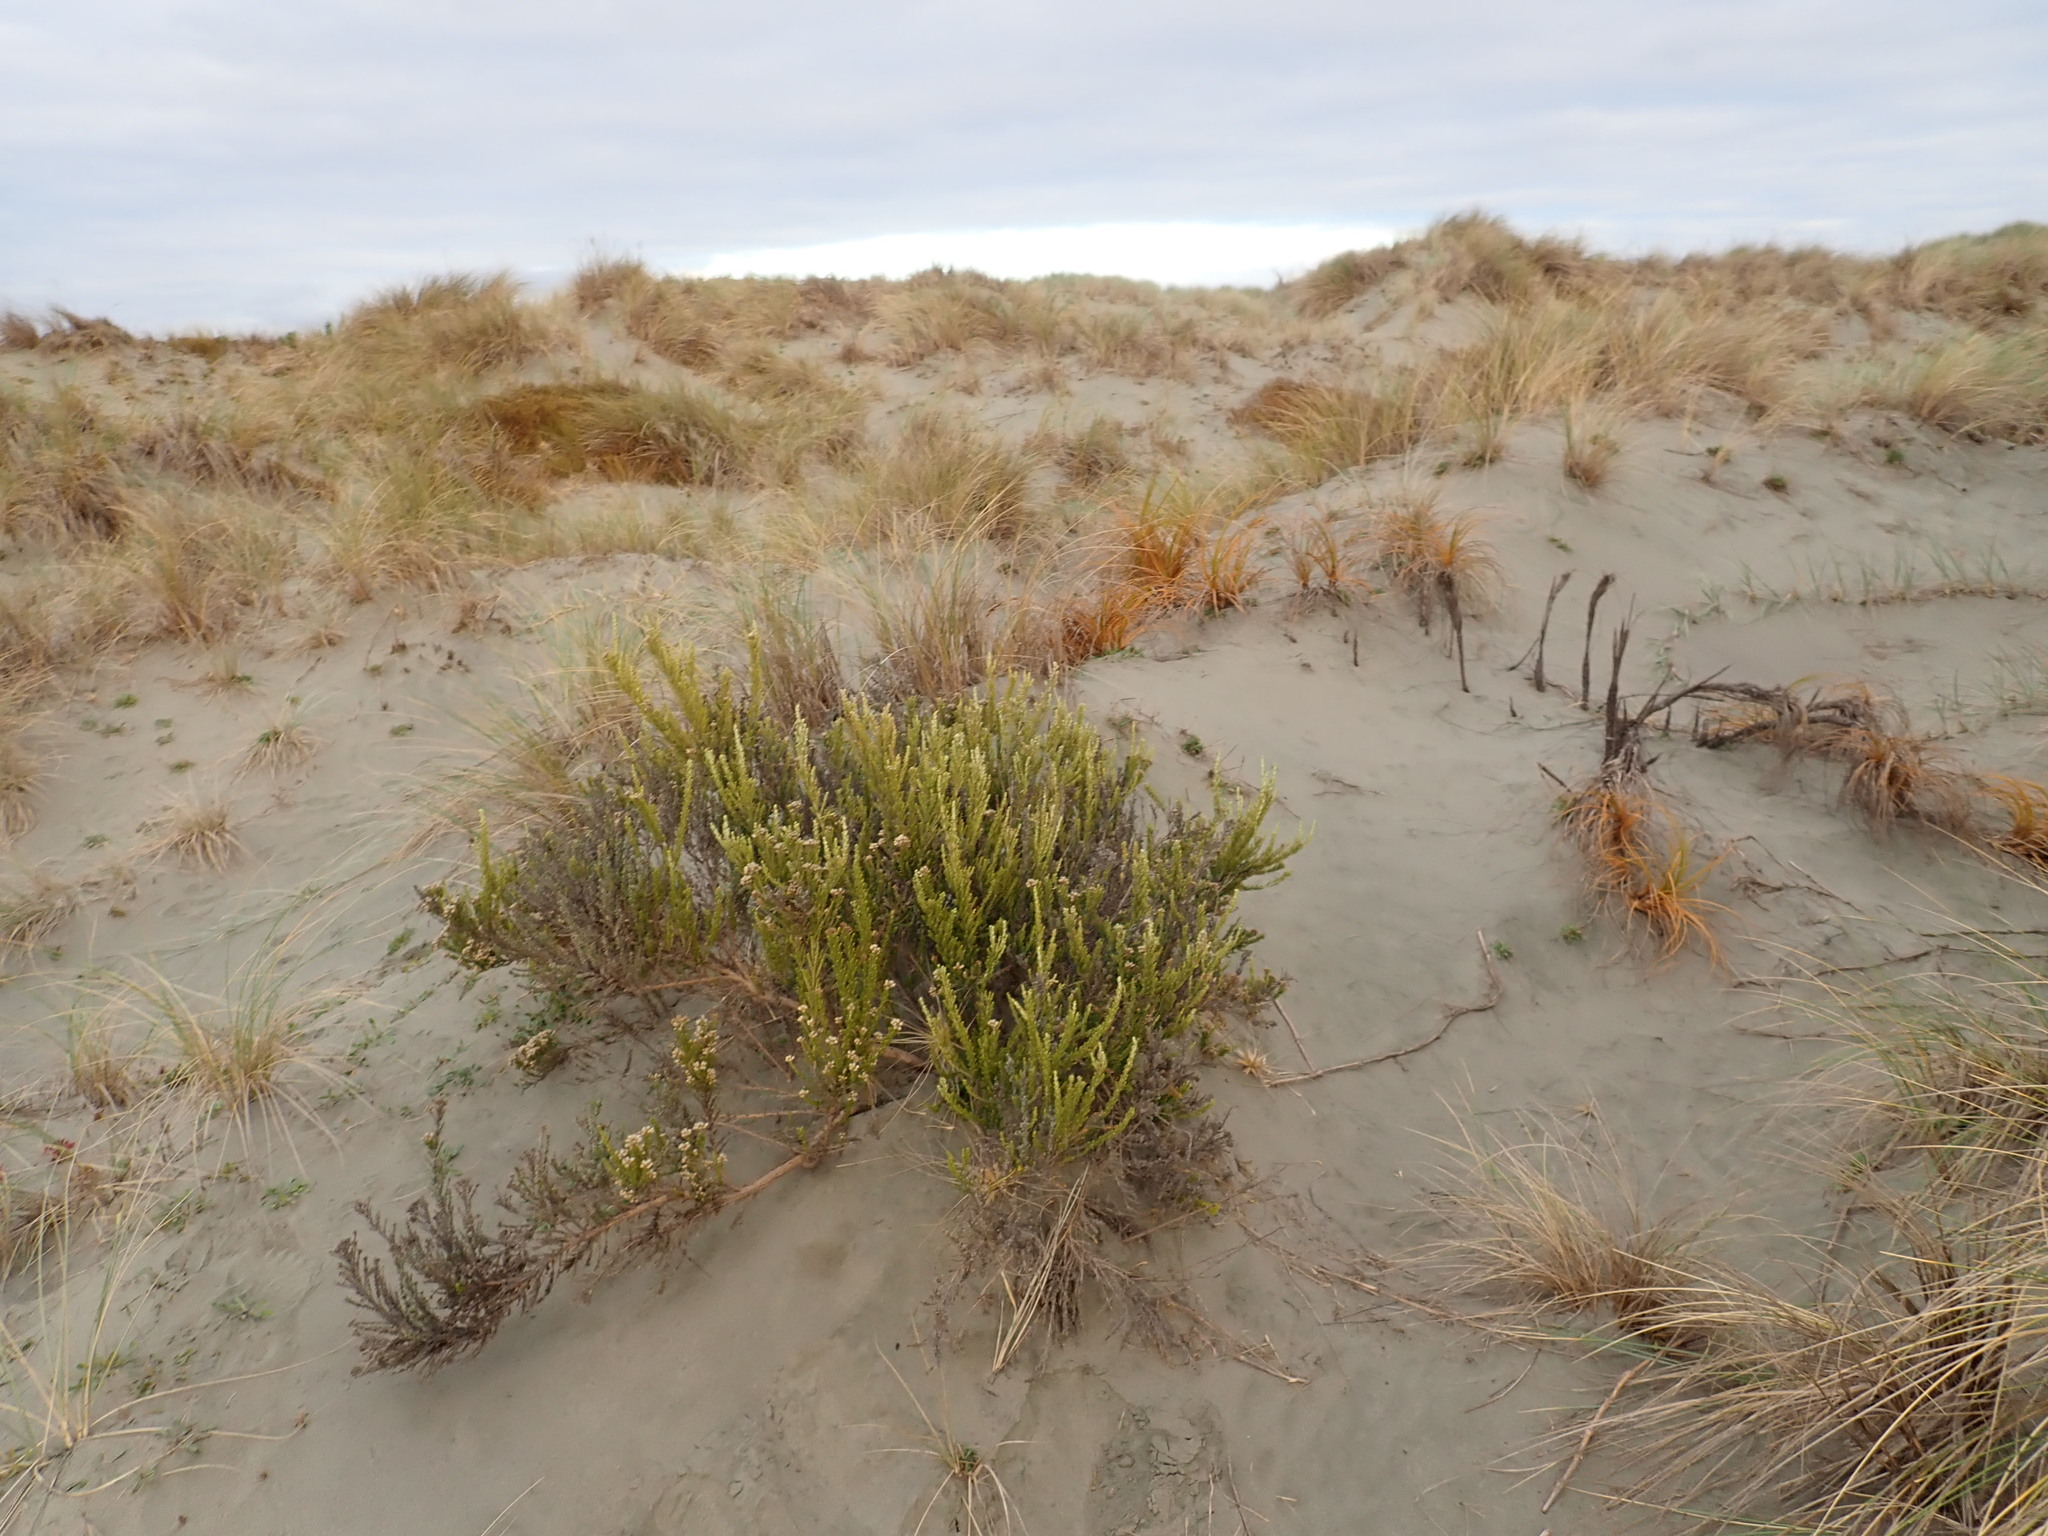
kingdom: Plantae
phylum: Tracheophyta
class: Magnoliopsida
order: Asterales
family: Asteraceae
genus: Ozothamnus
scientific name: Ozothamnus leptophyllus
